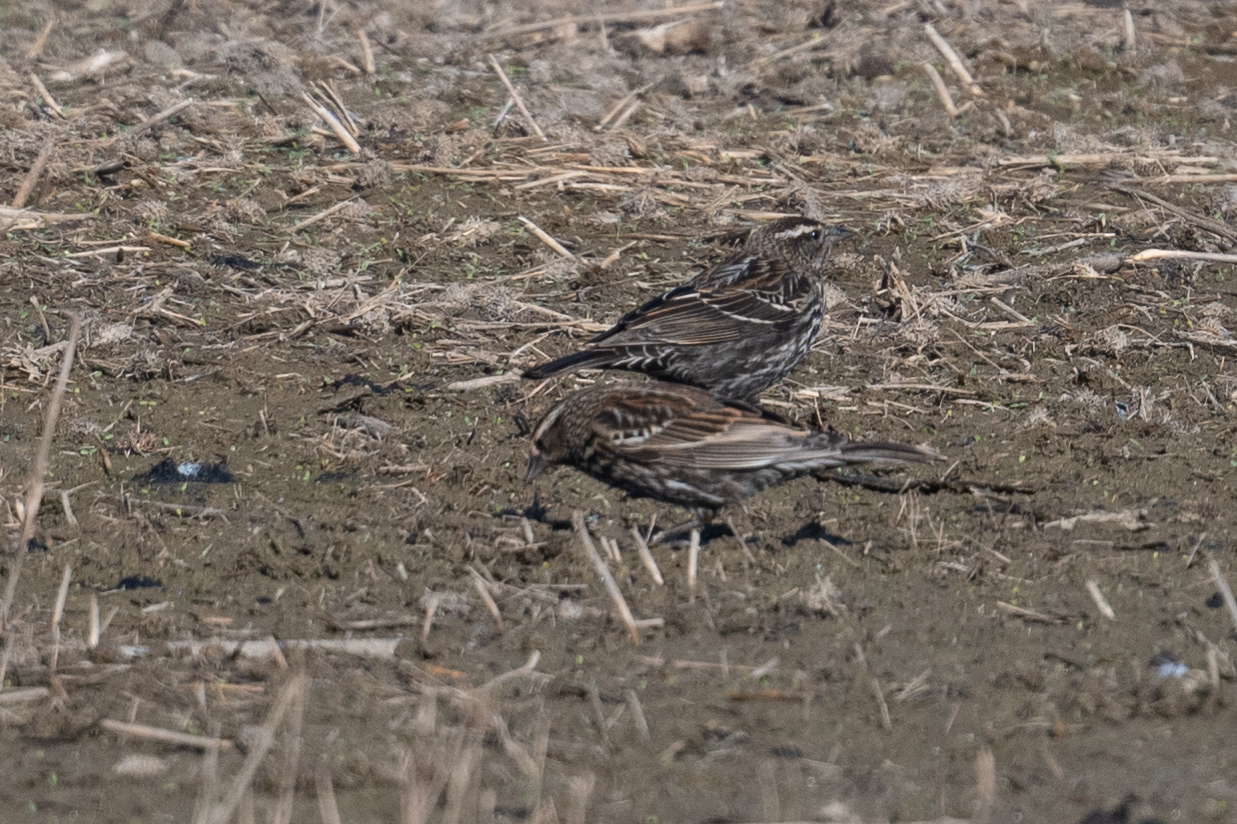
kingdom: Animalia
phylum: Chordata
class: Aves
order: Passeriformes
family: Icteridae
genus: Agelaius
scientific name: Agelaius phoeniceus
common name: Red-winged blackbird
